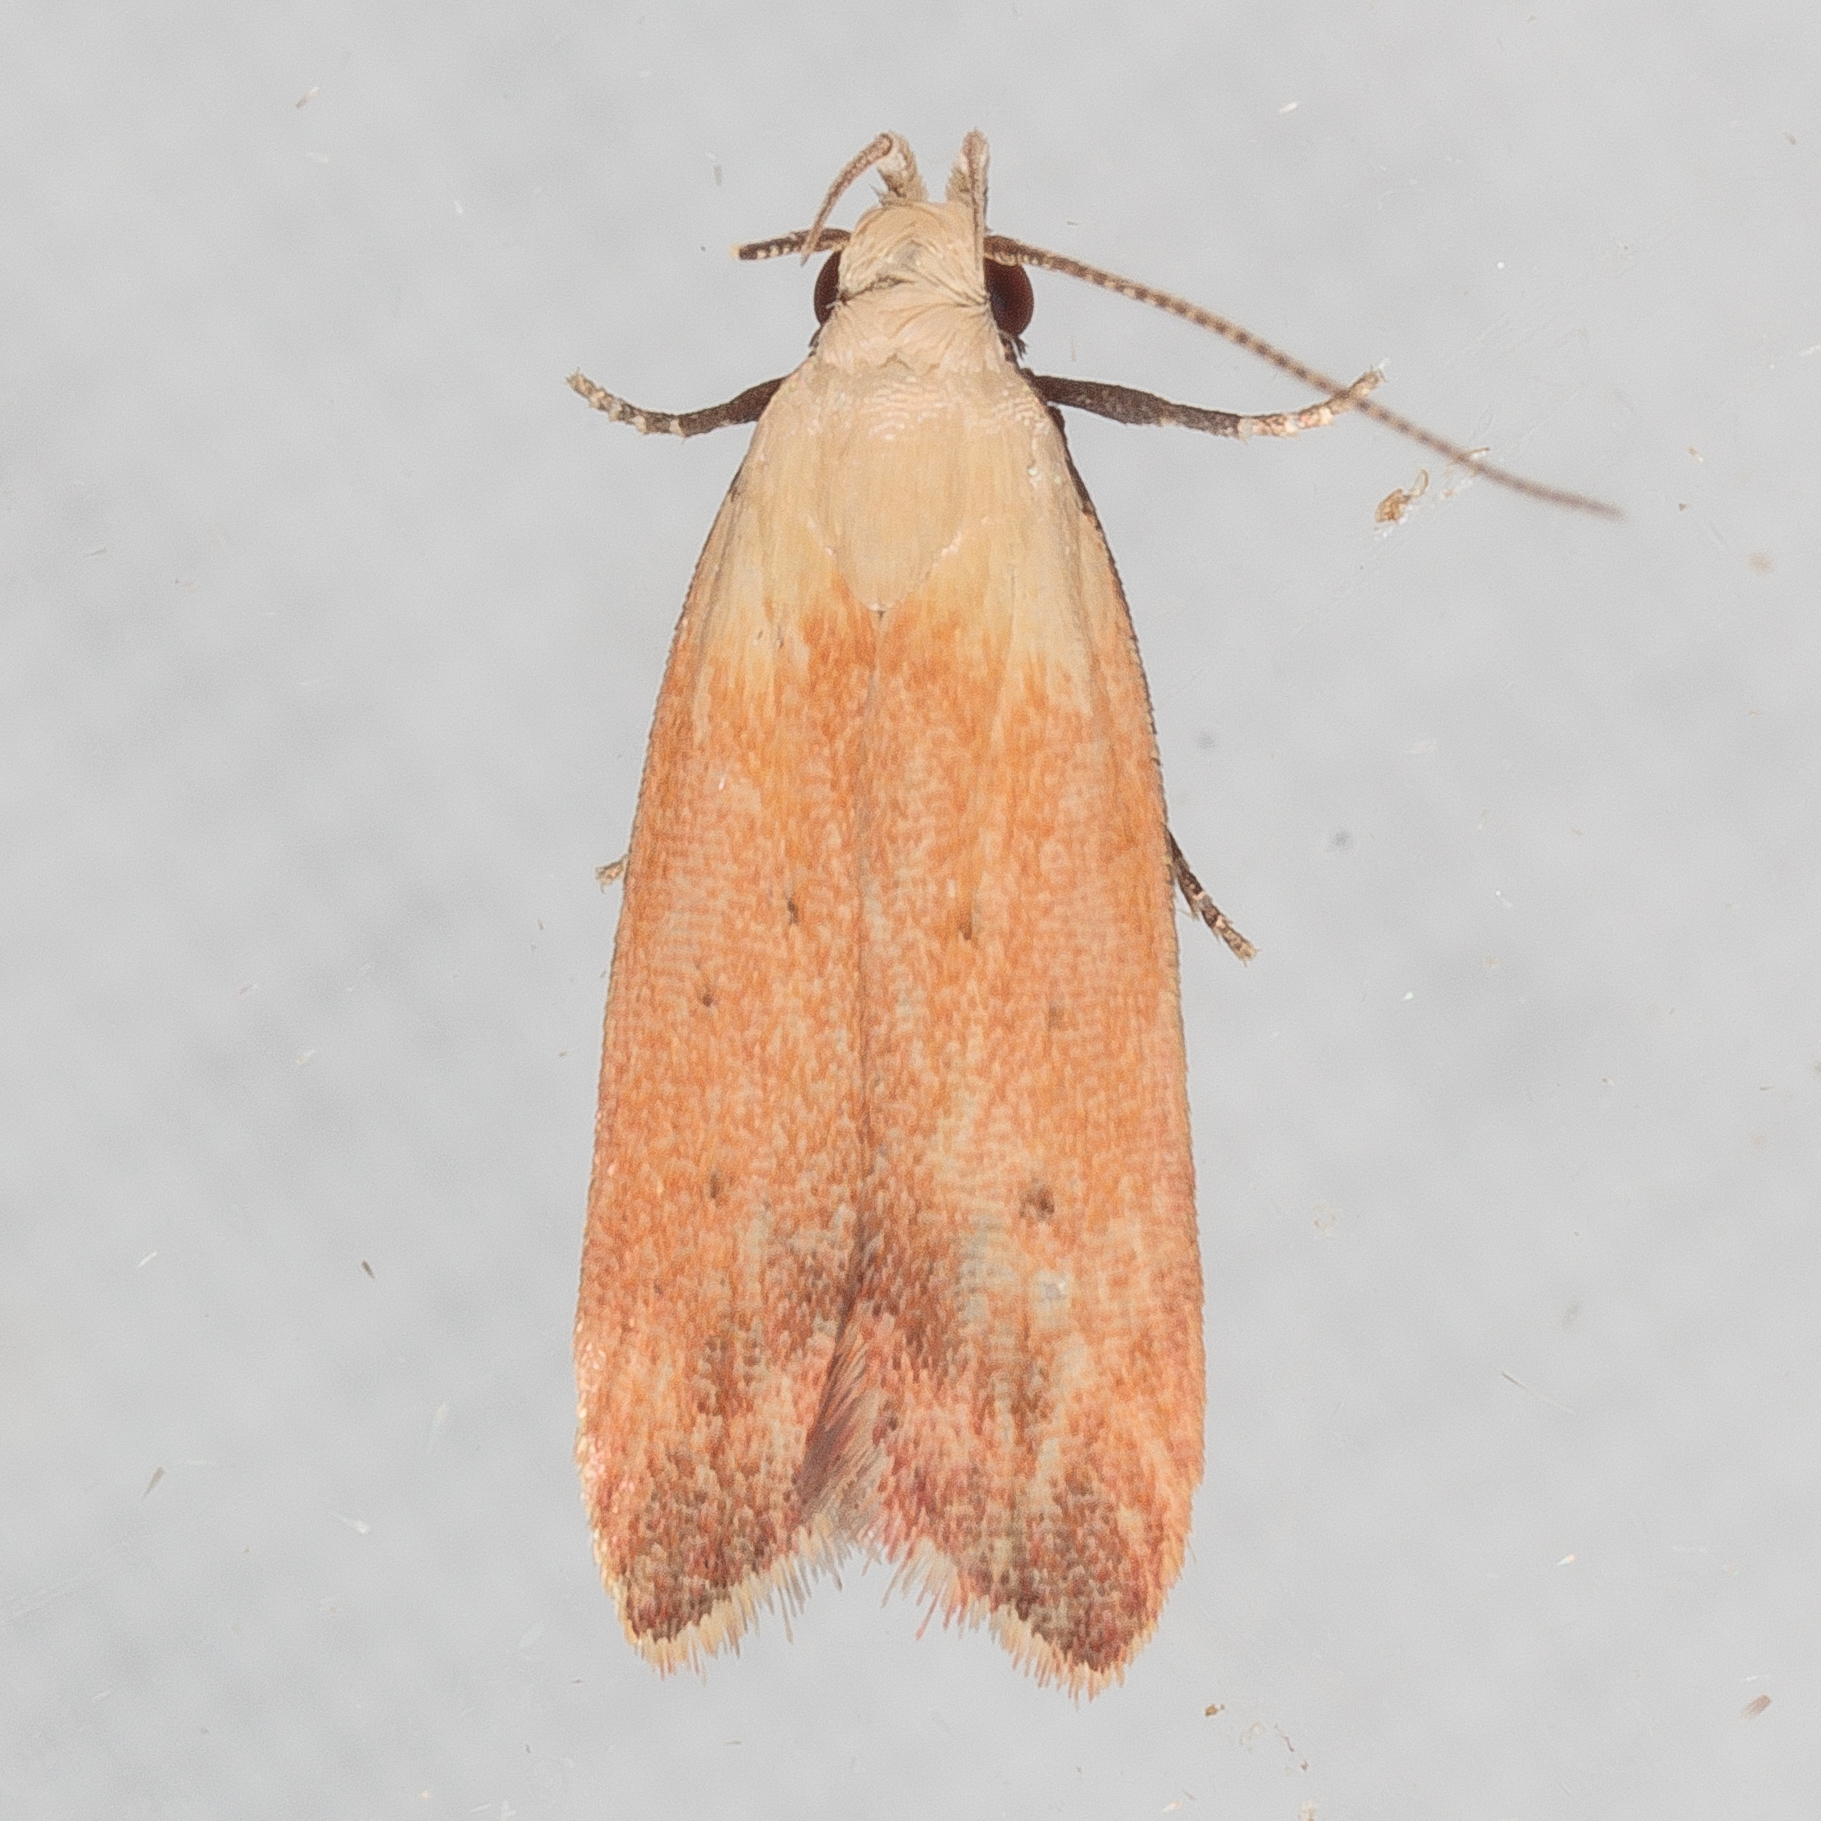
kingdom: Animalia
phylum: Arthropoda
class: Insecta
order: Lepidoptera
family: Gelechiidae
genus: Anacampsis
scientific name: Anacampsis fullonella
